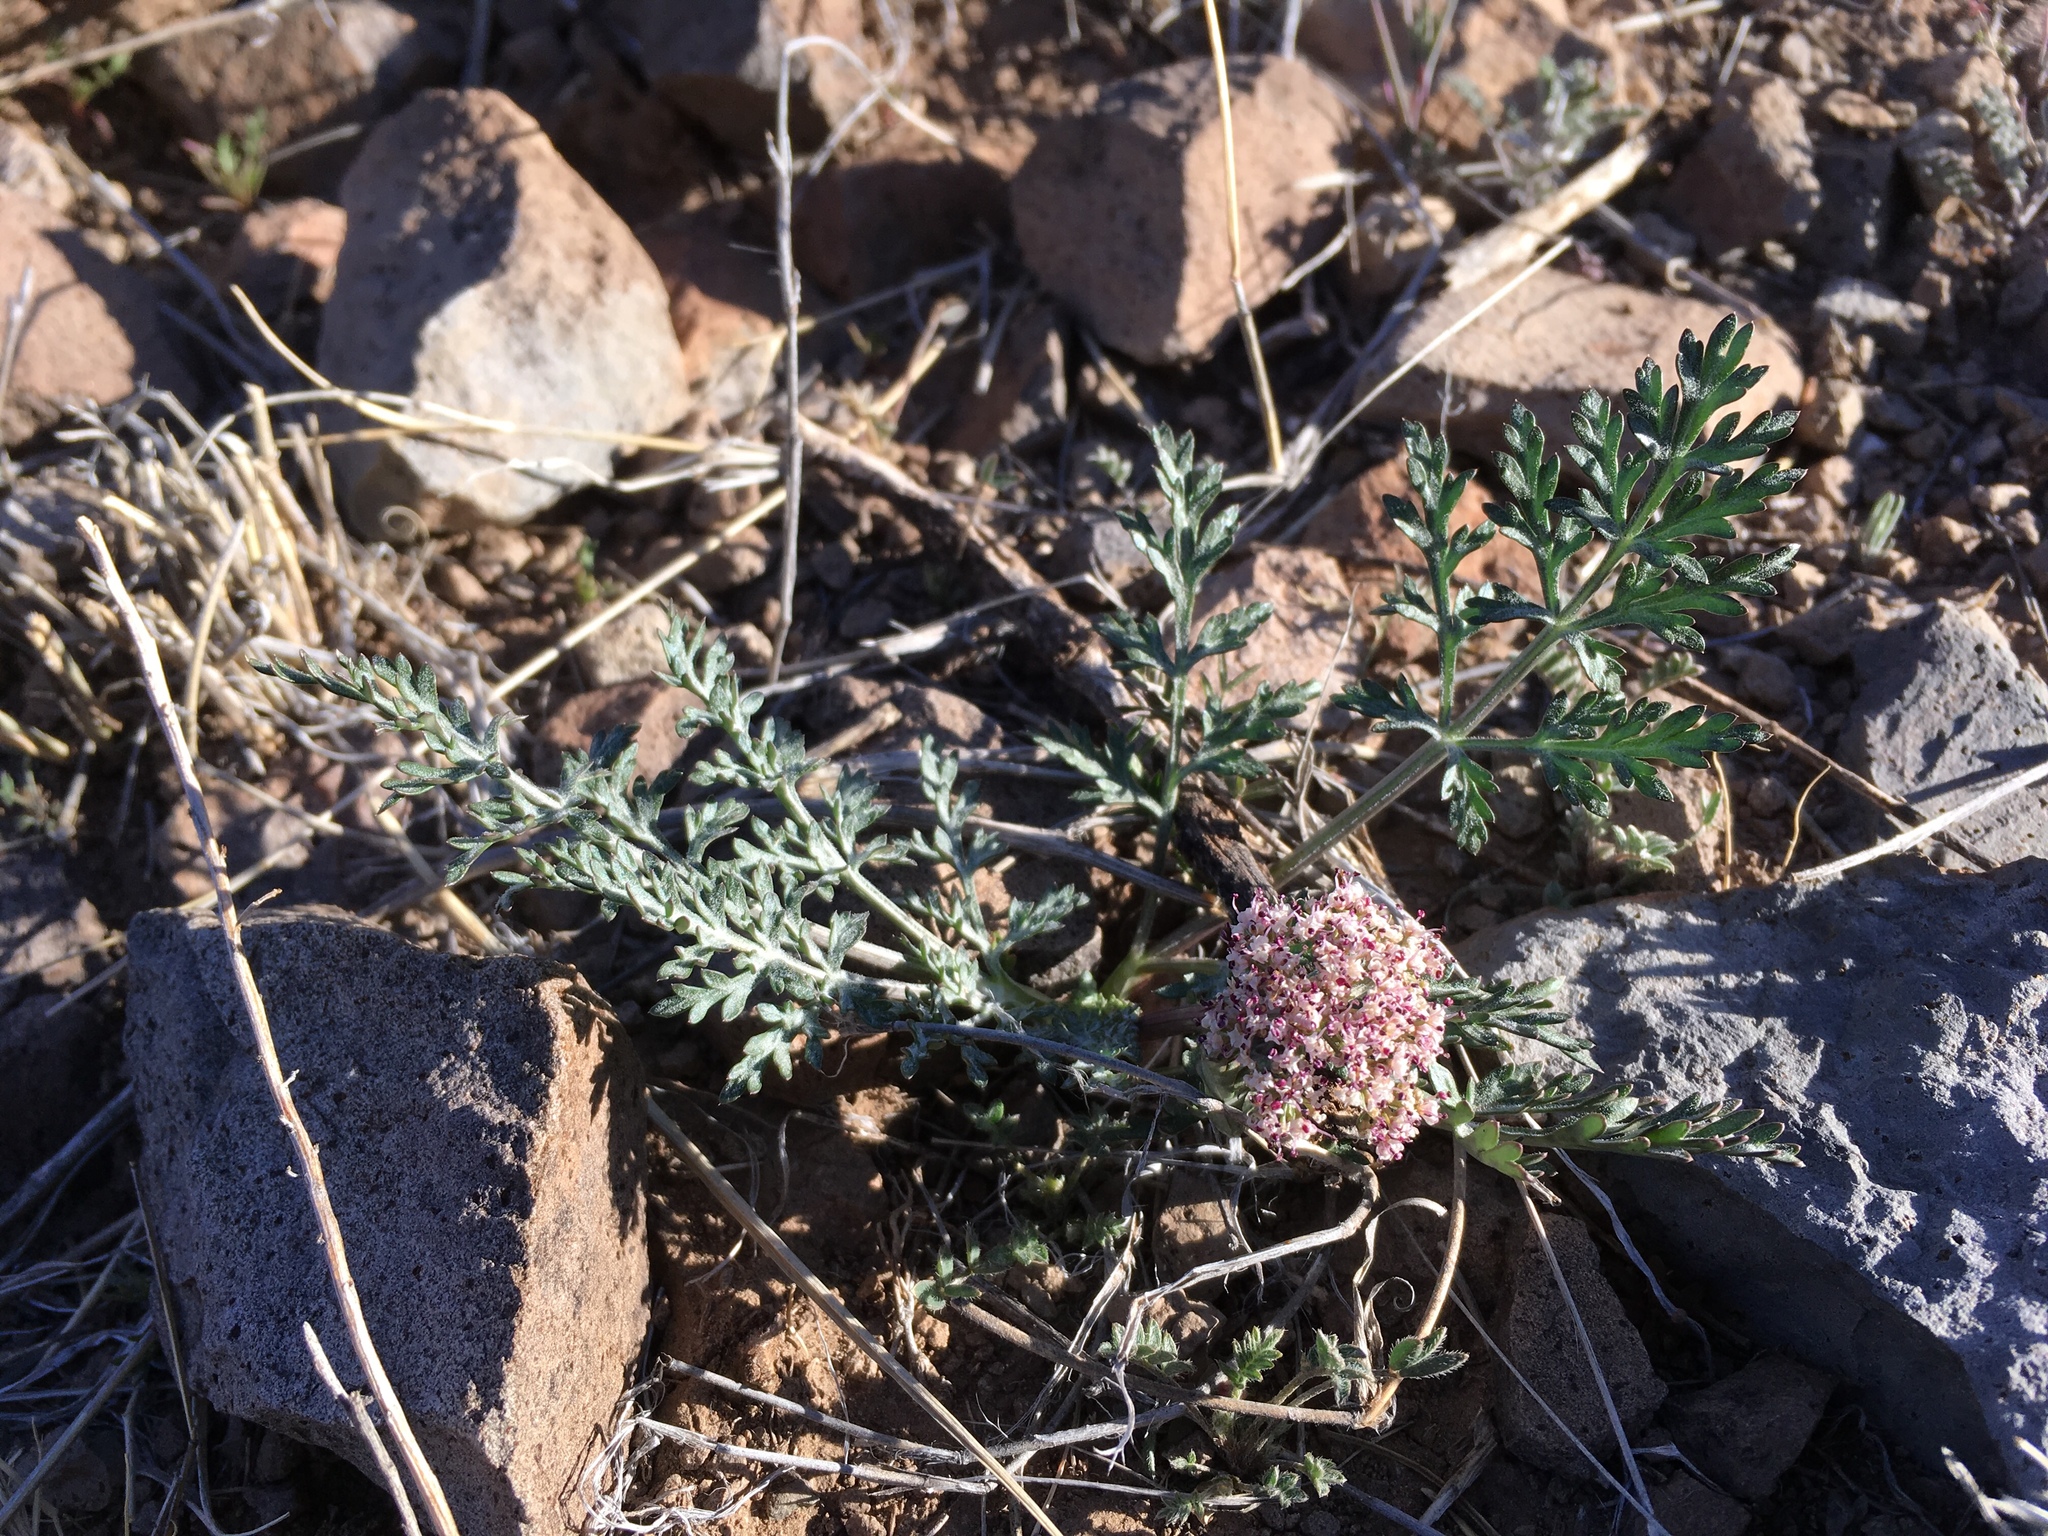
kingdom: Plantae
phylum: Tracheophyta
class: Magnoliopsida
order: Apiales
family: Apiaceae
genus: Lomatium
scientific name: Lomatium nevadense
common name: Nevada lomatium
